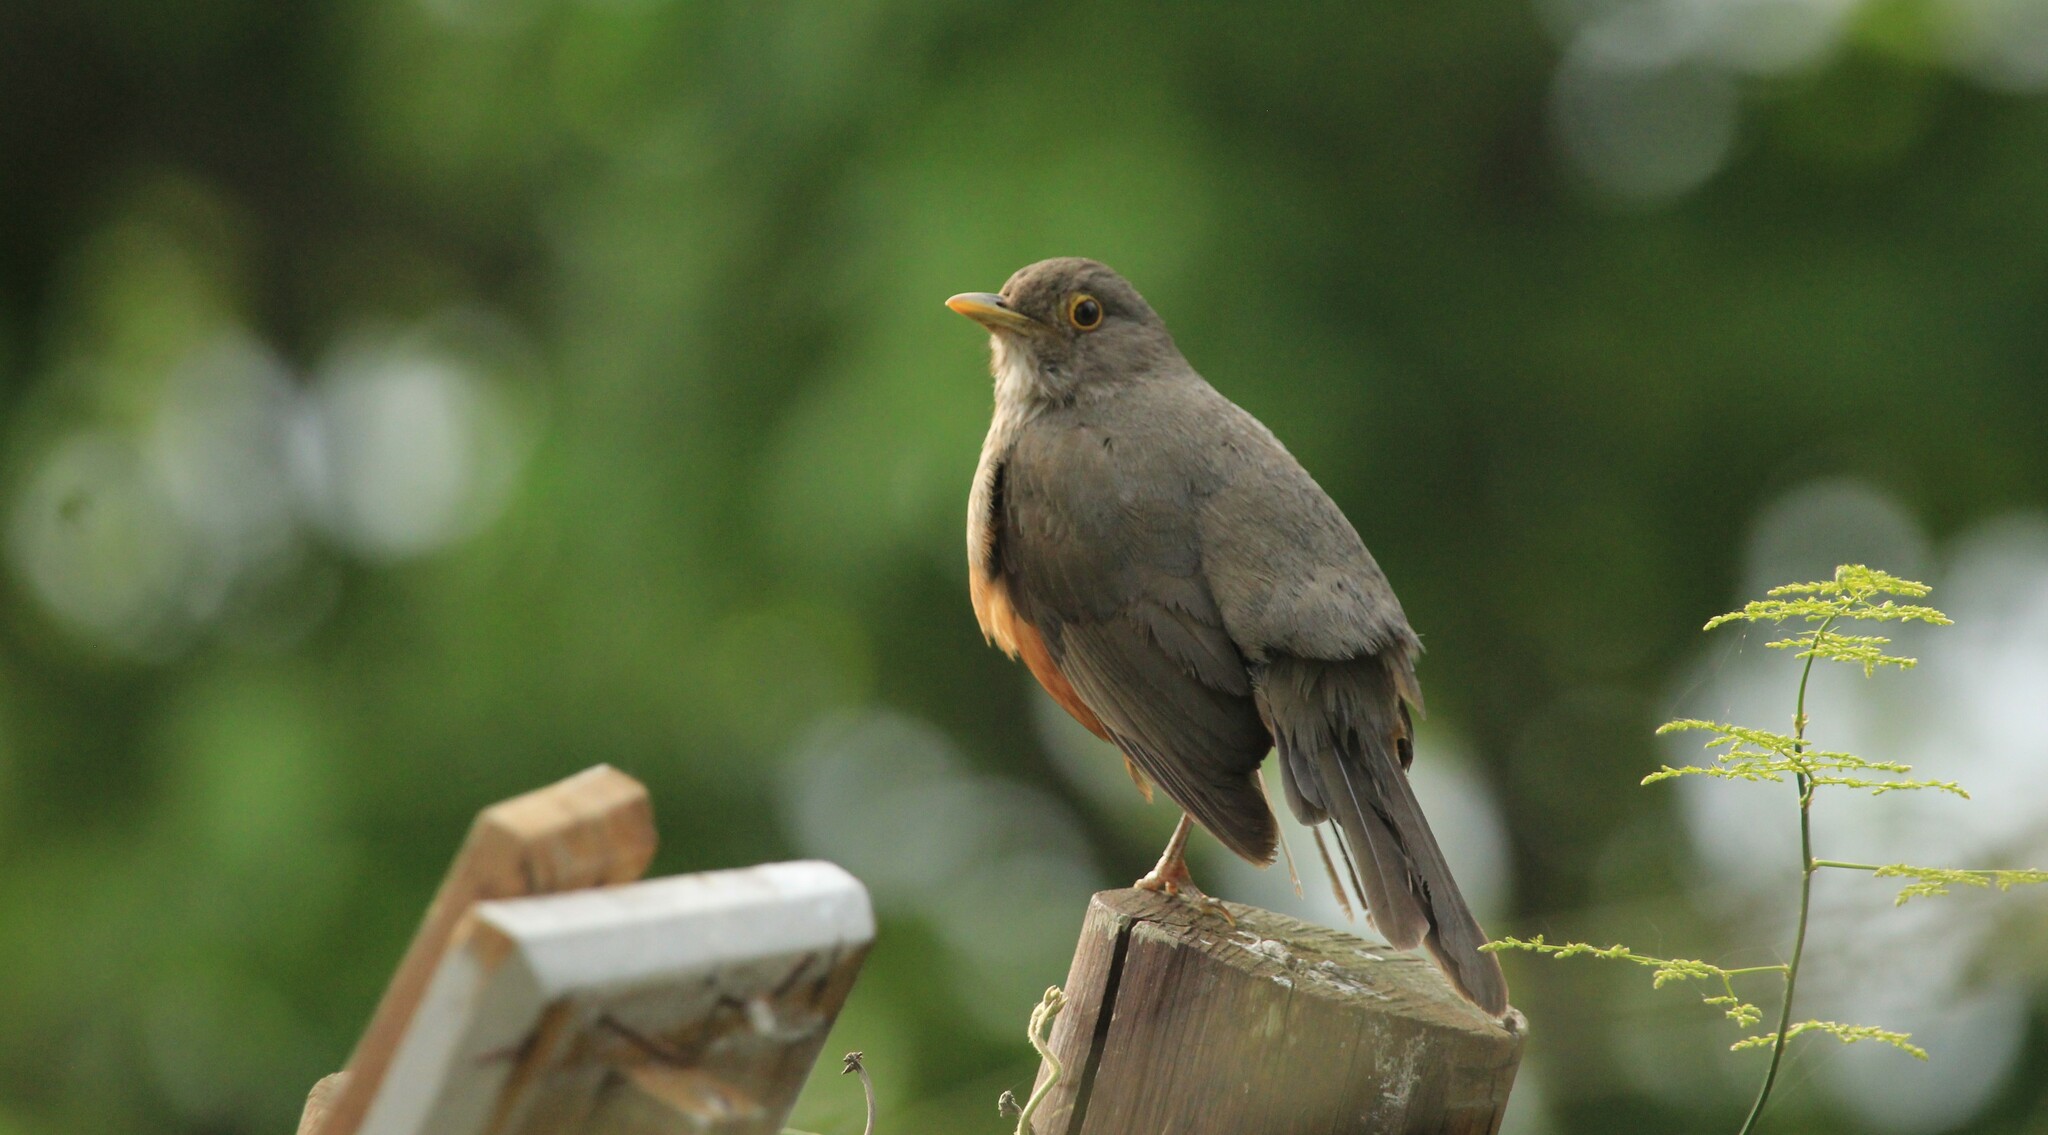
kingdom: Animalia
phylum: Chordata
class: Aves
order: Passeriformes
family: Turdidae
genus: Turdus
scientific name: Turdus rufiventris
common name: Rufous-bellied thrush
